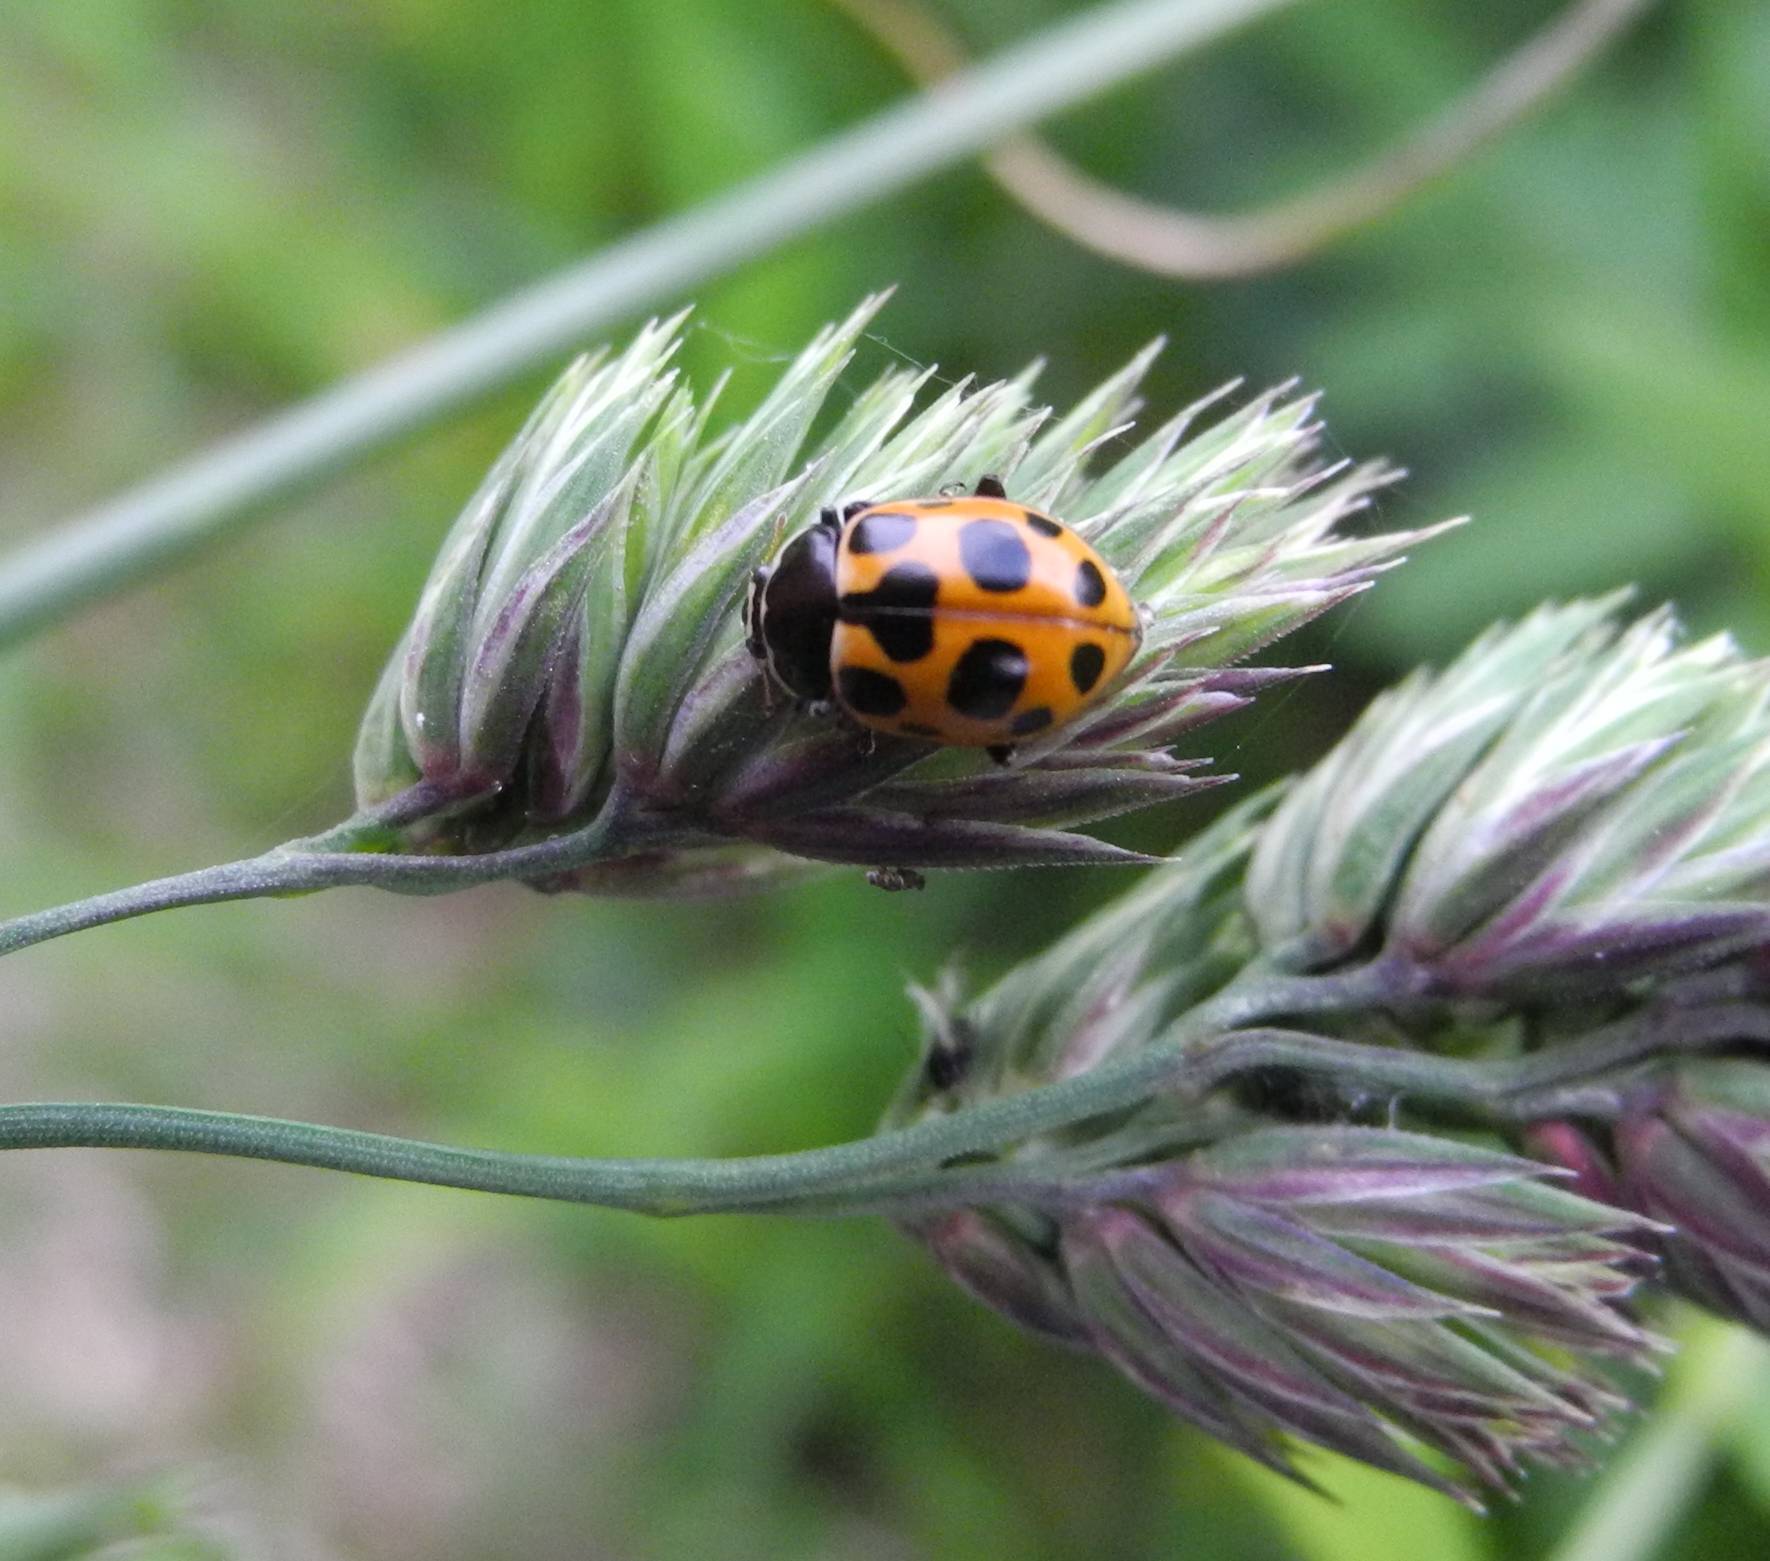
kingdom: Animalia
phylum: Arthropoda
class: Insecta
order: Coleoptera
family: Coccinellidae
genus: Ceratomegilla
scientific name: Ceratomegilla notata
